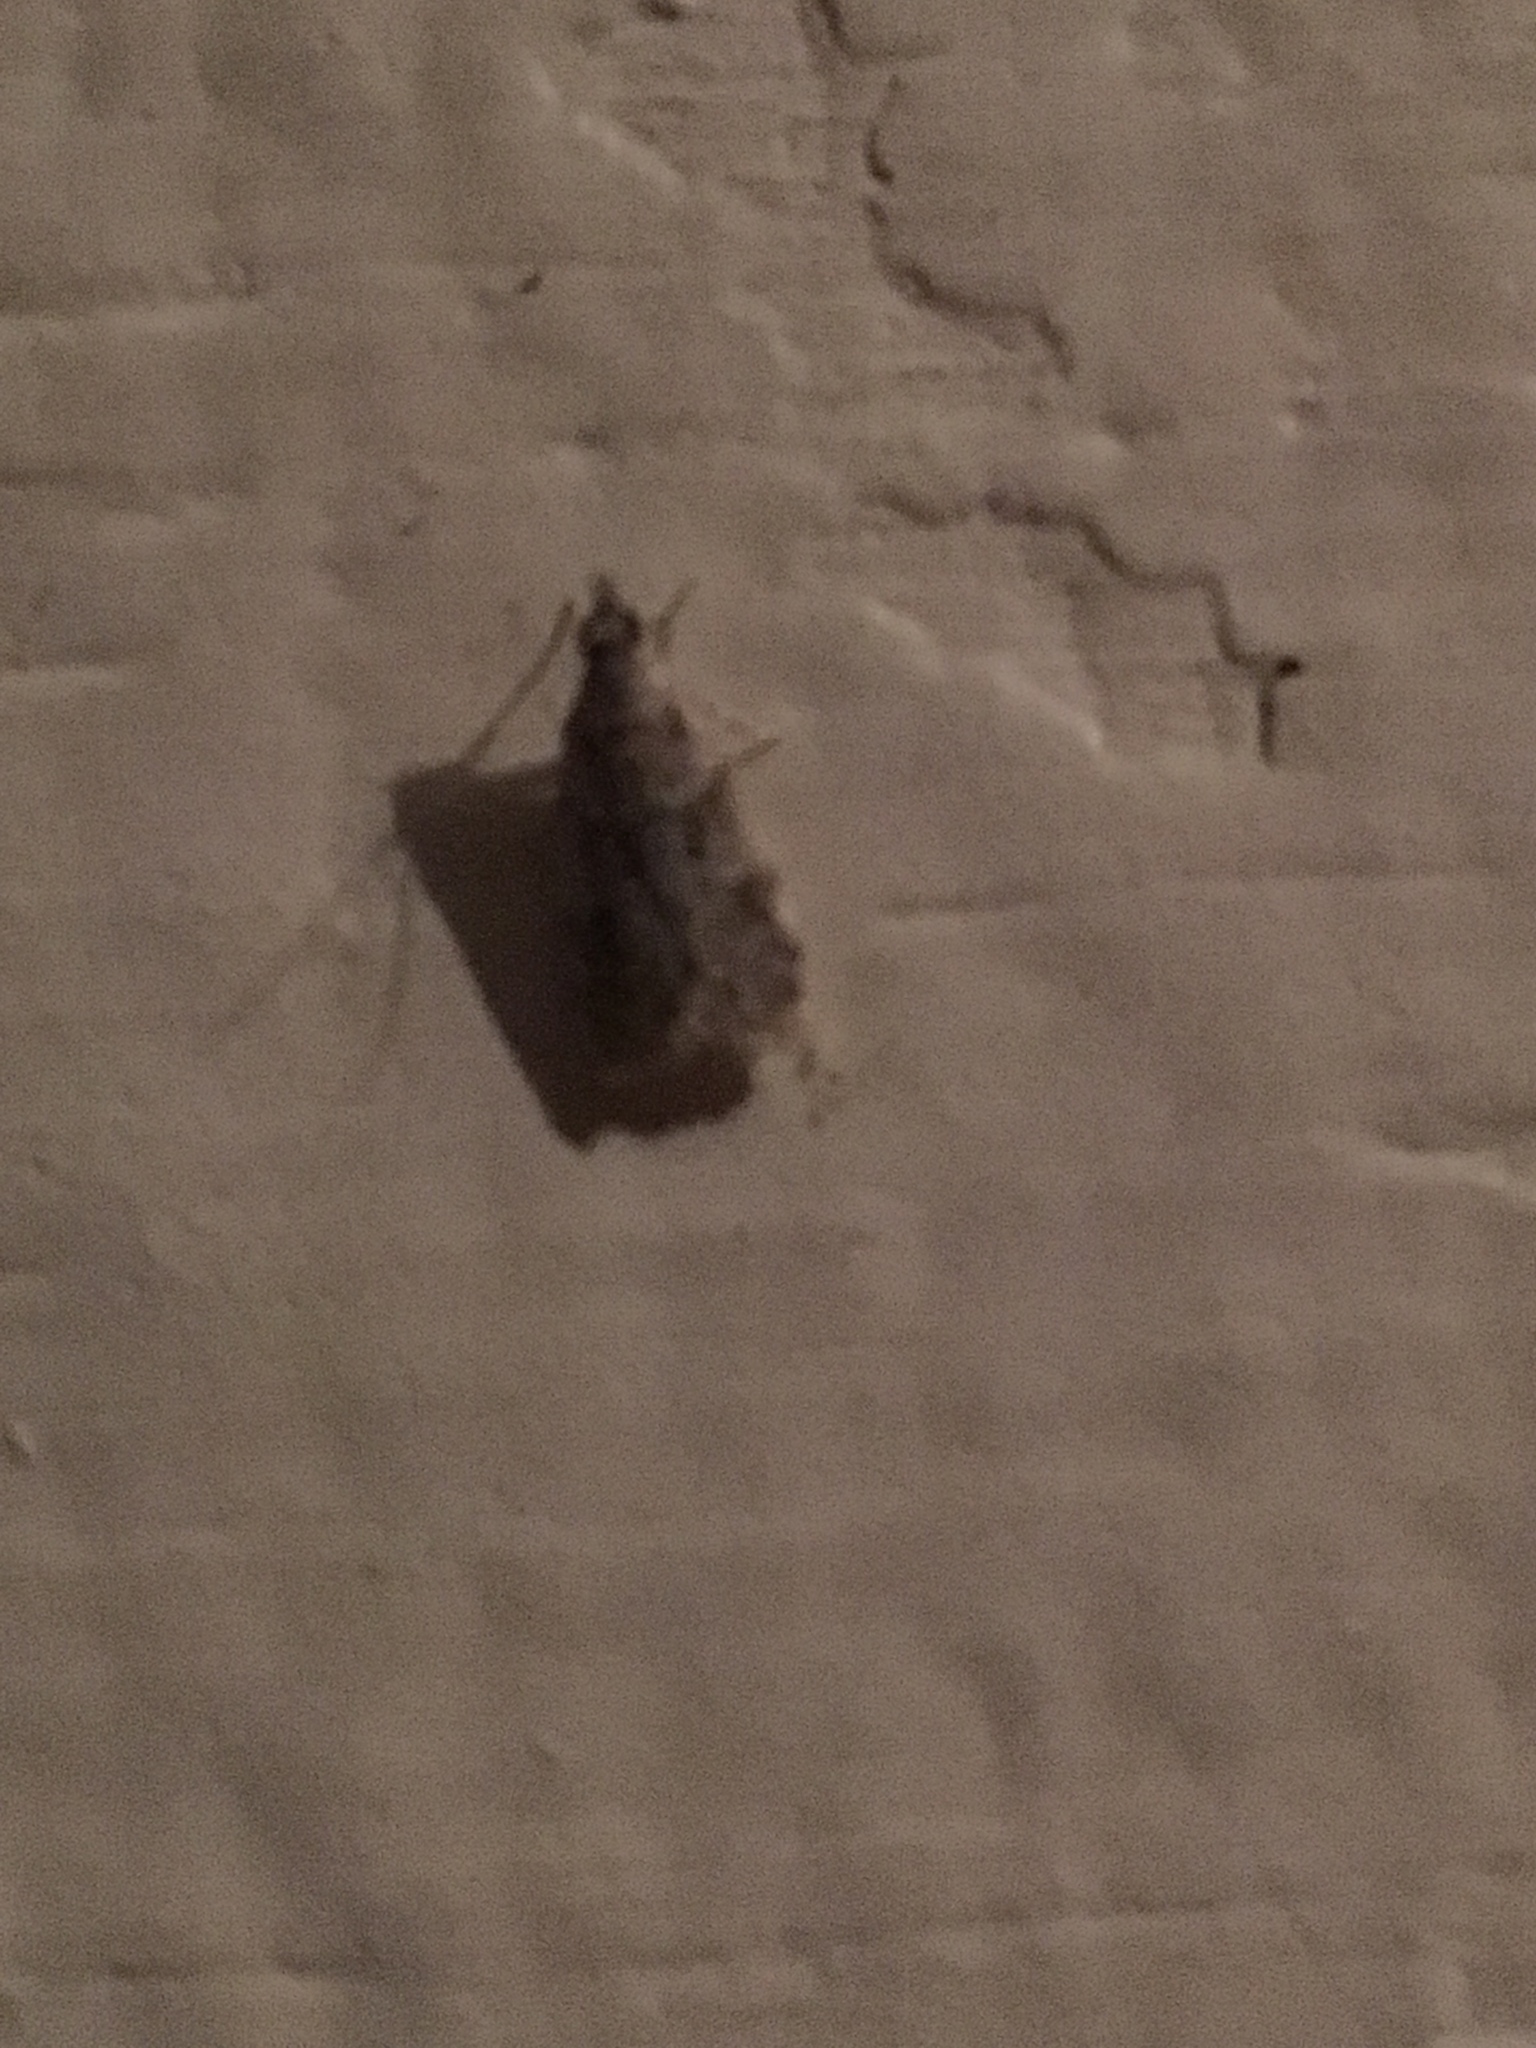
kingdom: Animalia
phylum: Arthropoda
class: Insecta
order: Lepidoptera
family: Crambidae
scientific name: Crambidae
